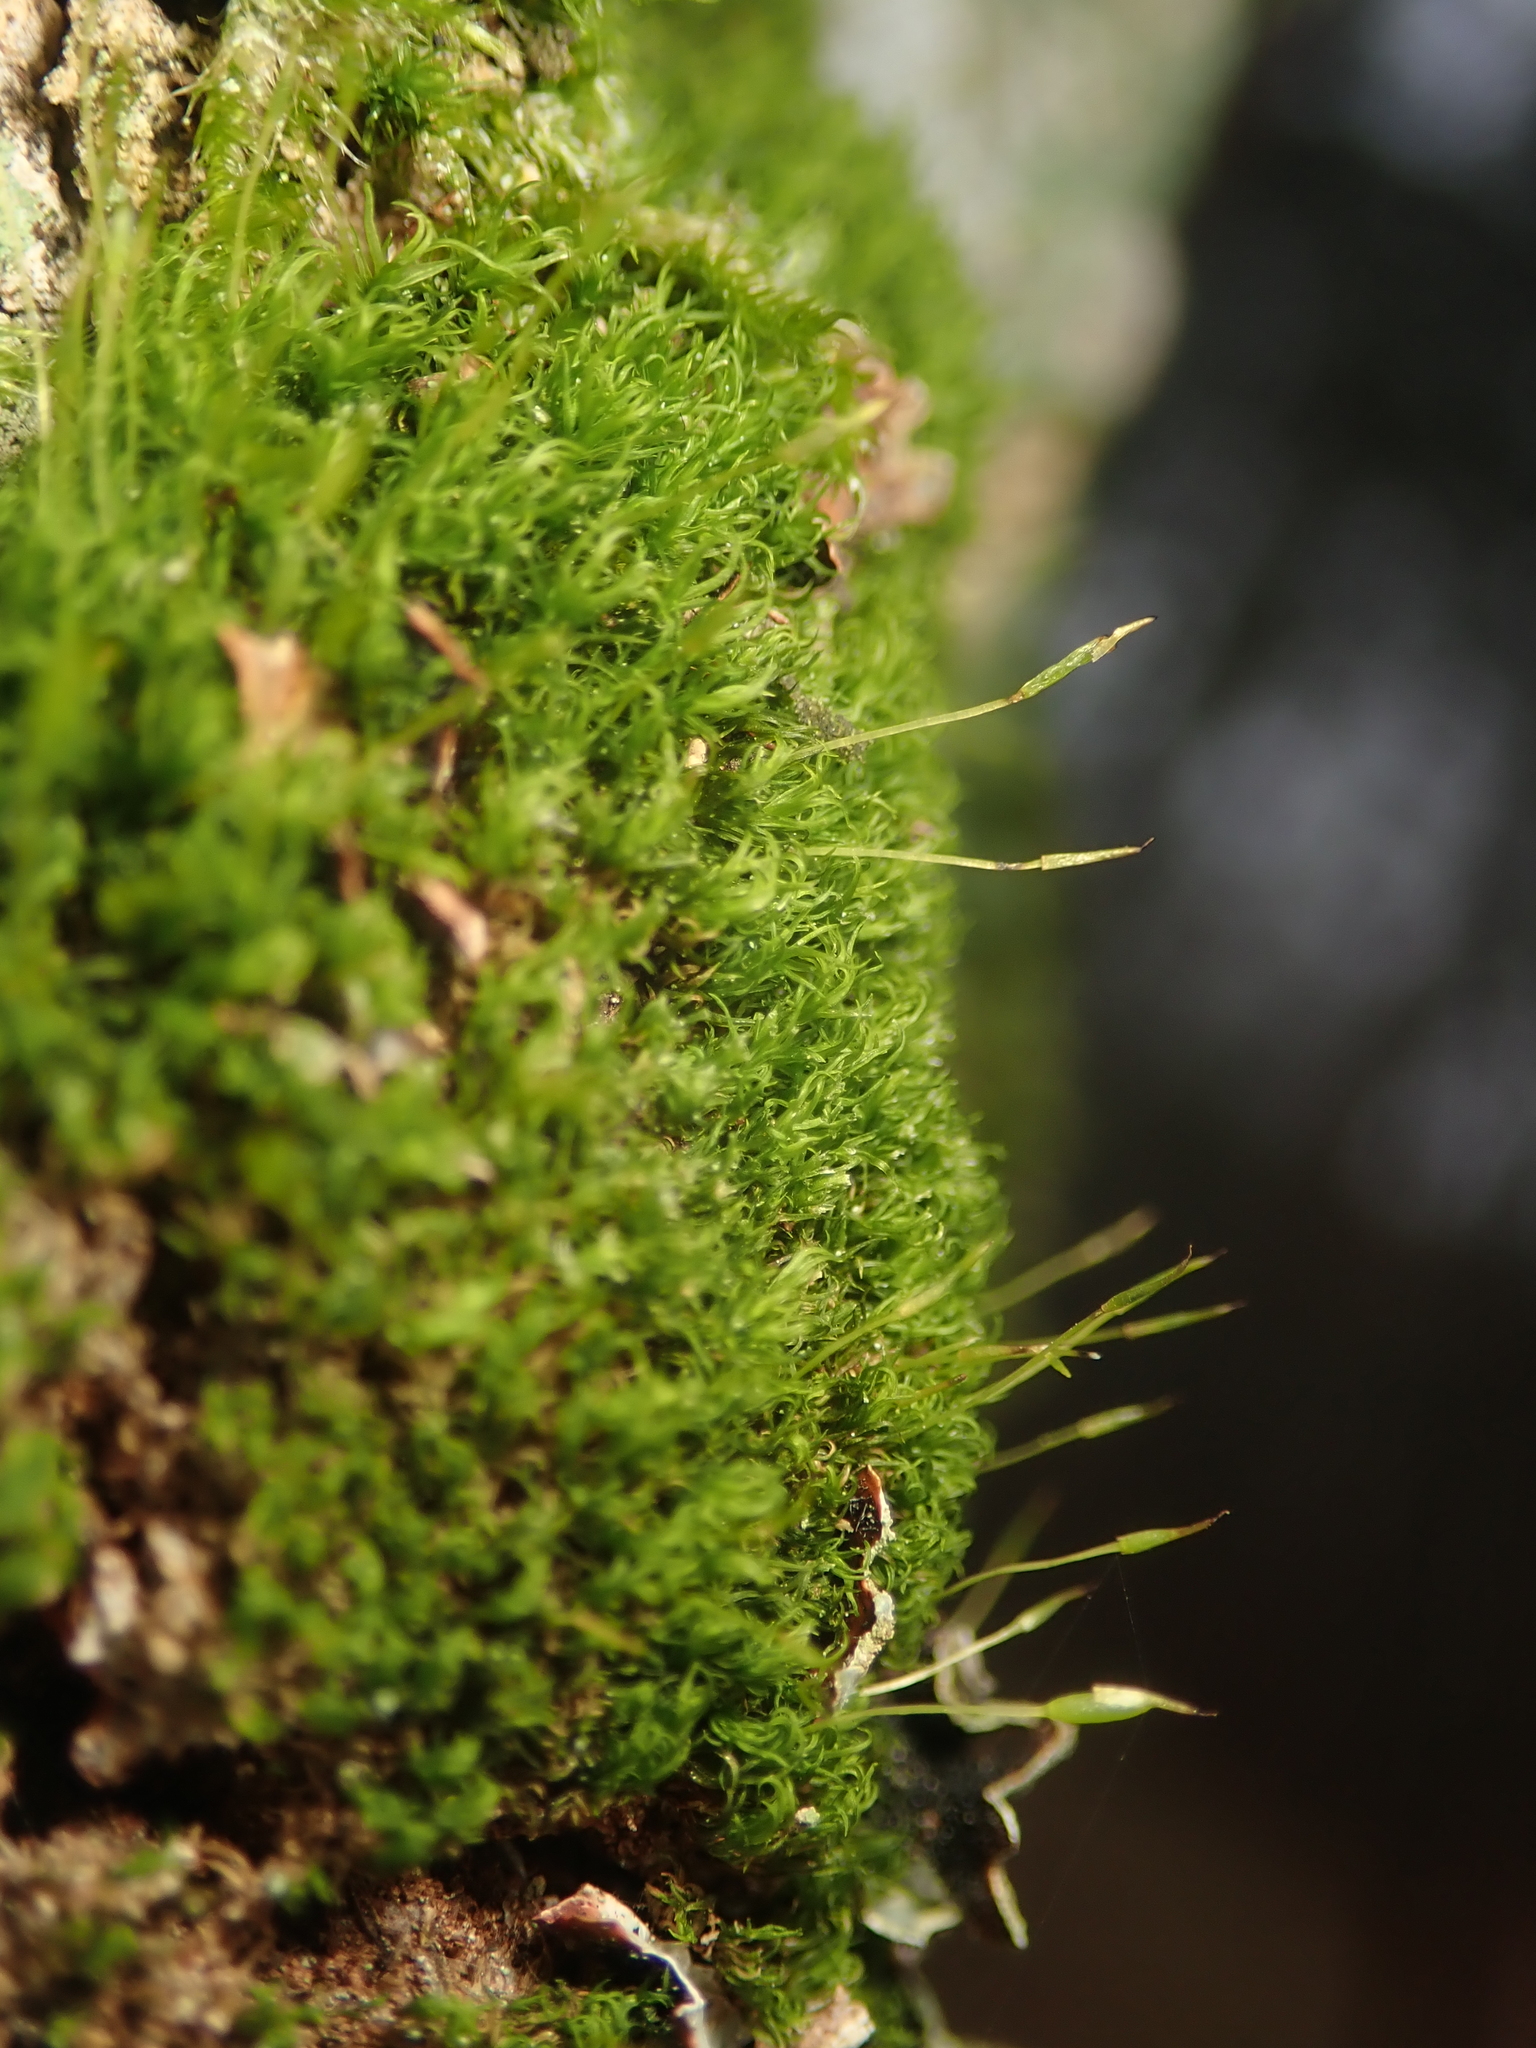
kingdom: Plantae
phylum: Bryophyta
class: Bryopsida
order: Dicranales
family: Rhabdoweisiaceae
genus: Dicranoweisia
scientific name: Dicranoweisia cirrata
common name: Common pincushion
